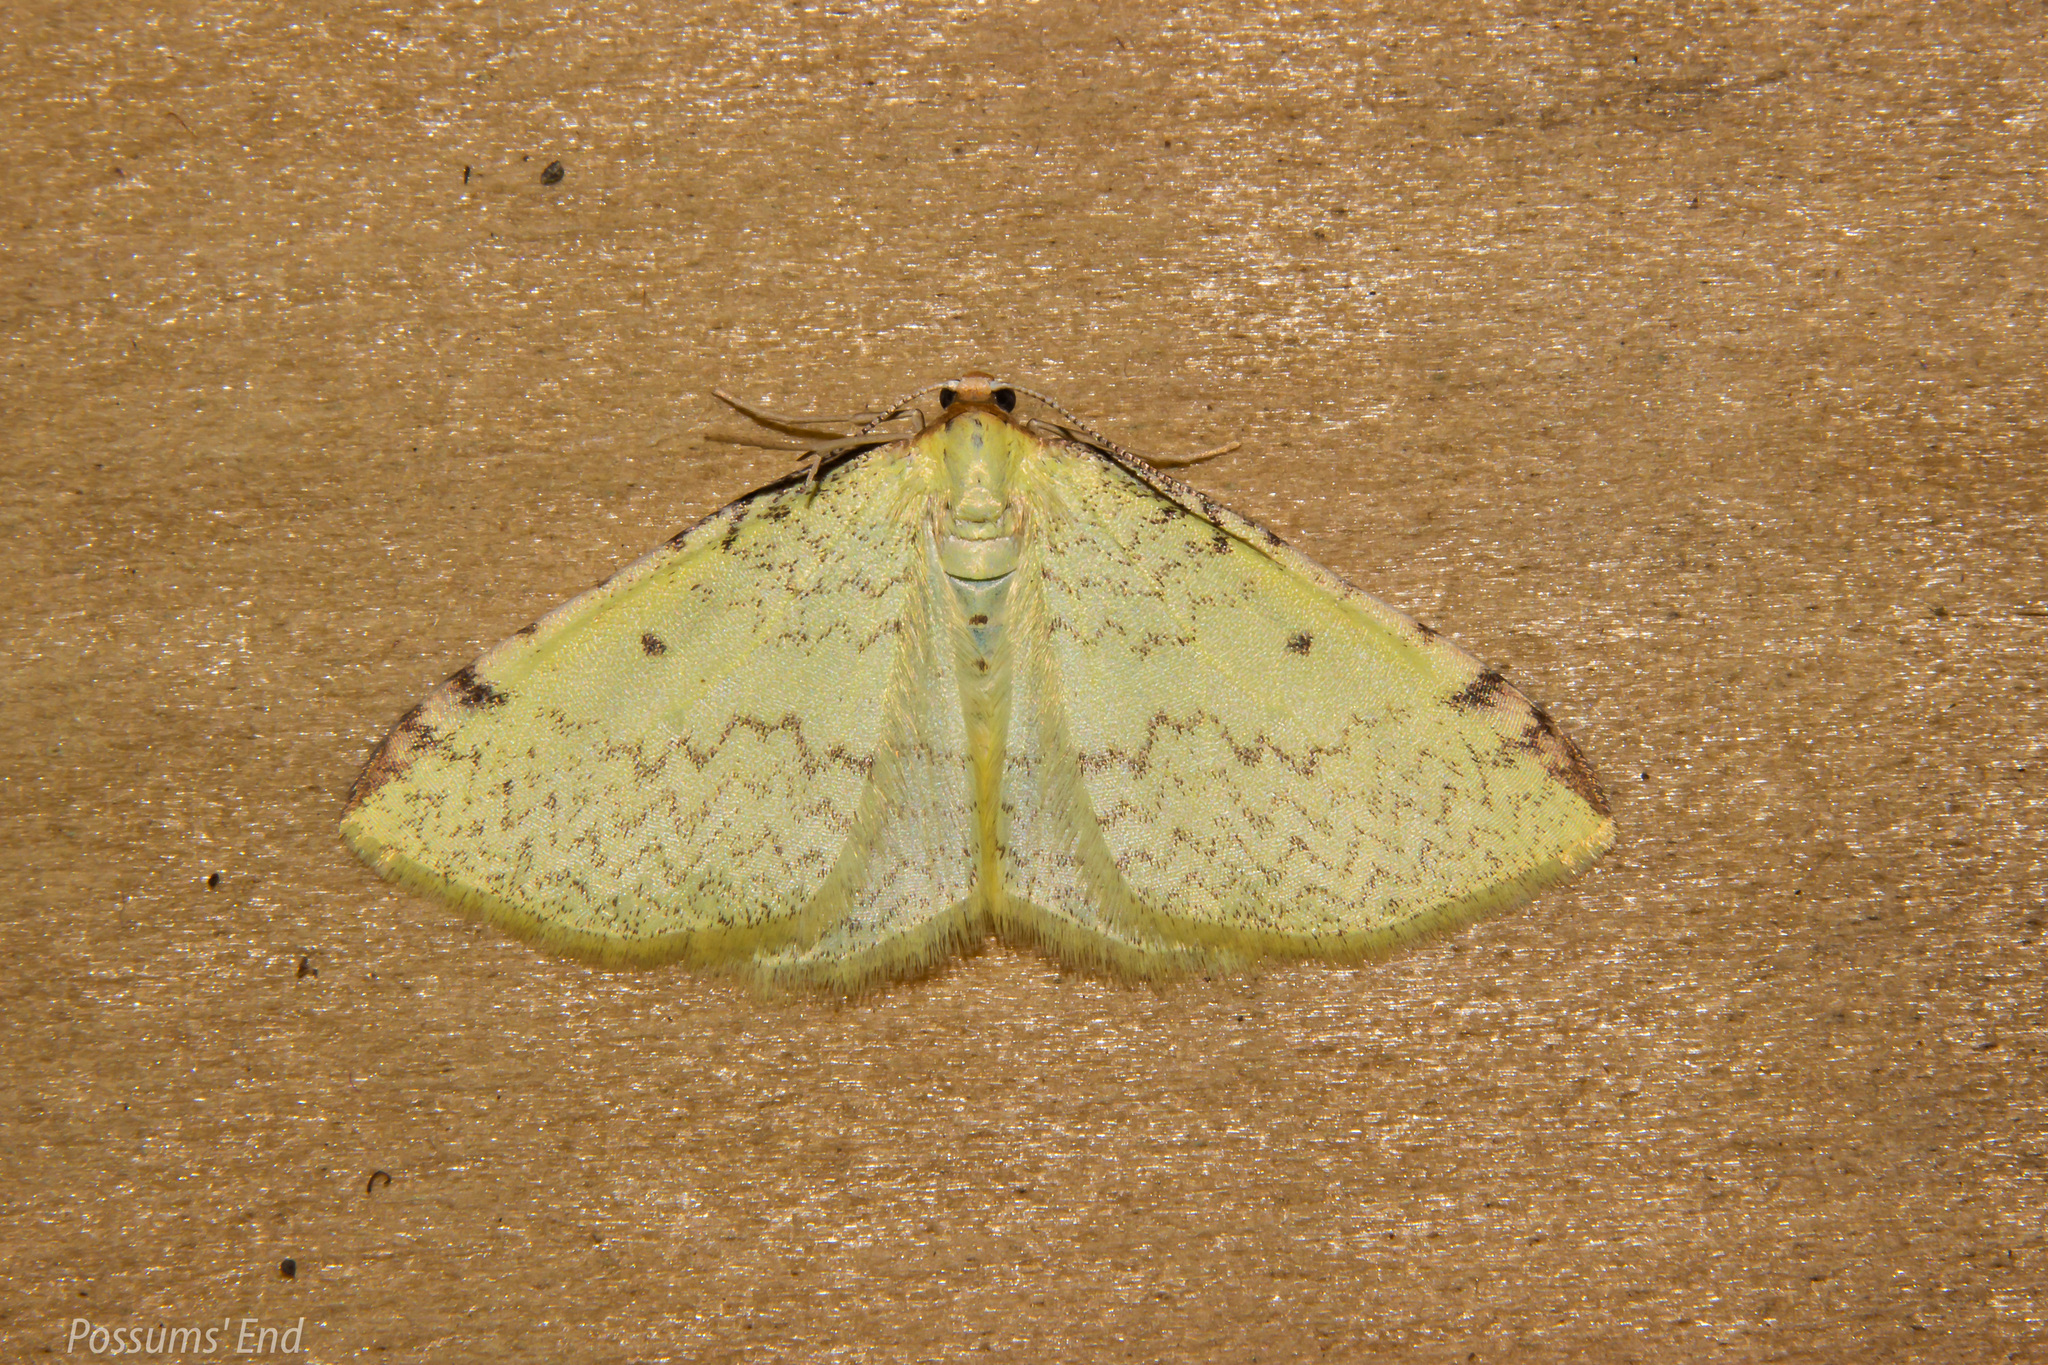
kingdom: Animalia
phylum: Arthropoda
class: Insecta
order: Lepidoptera
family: Geometridae
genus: Epiphryne
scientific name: Epiphryne undosata
